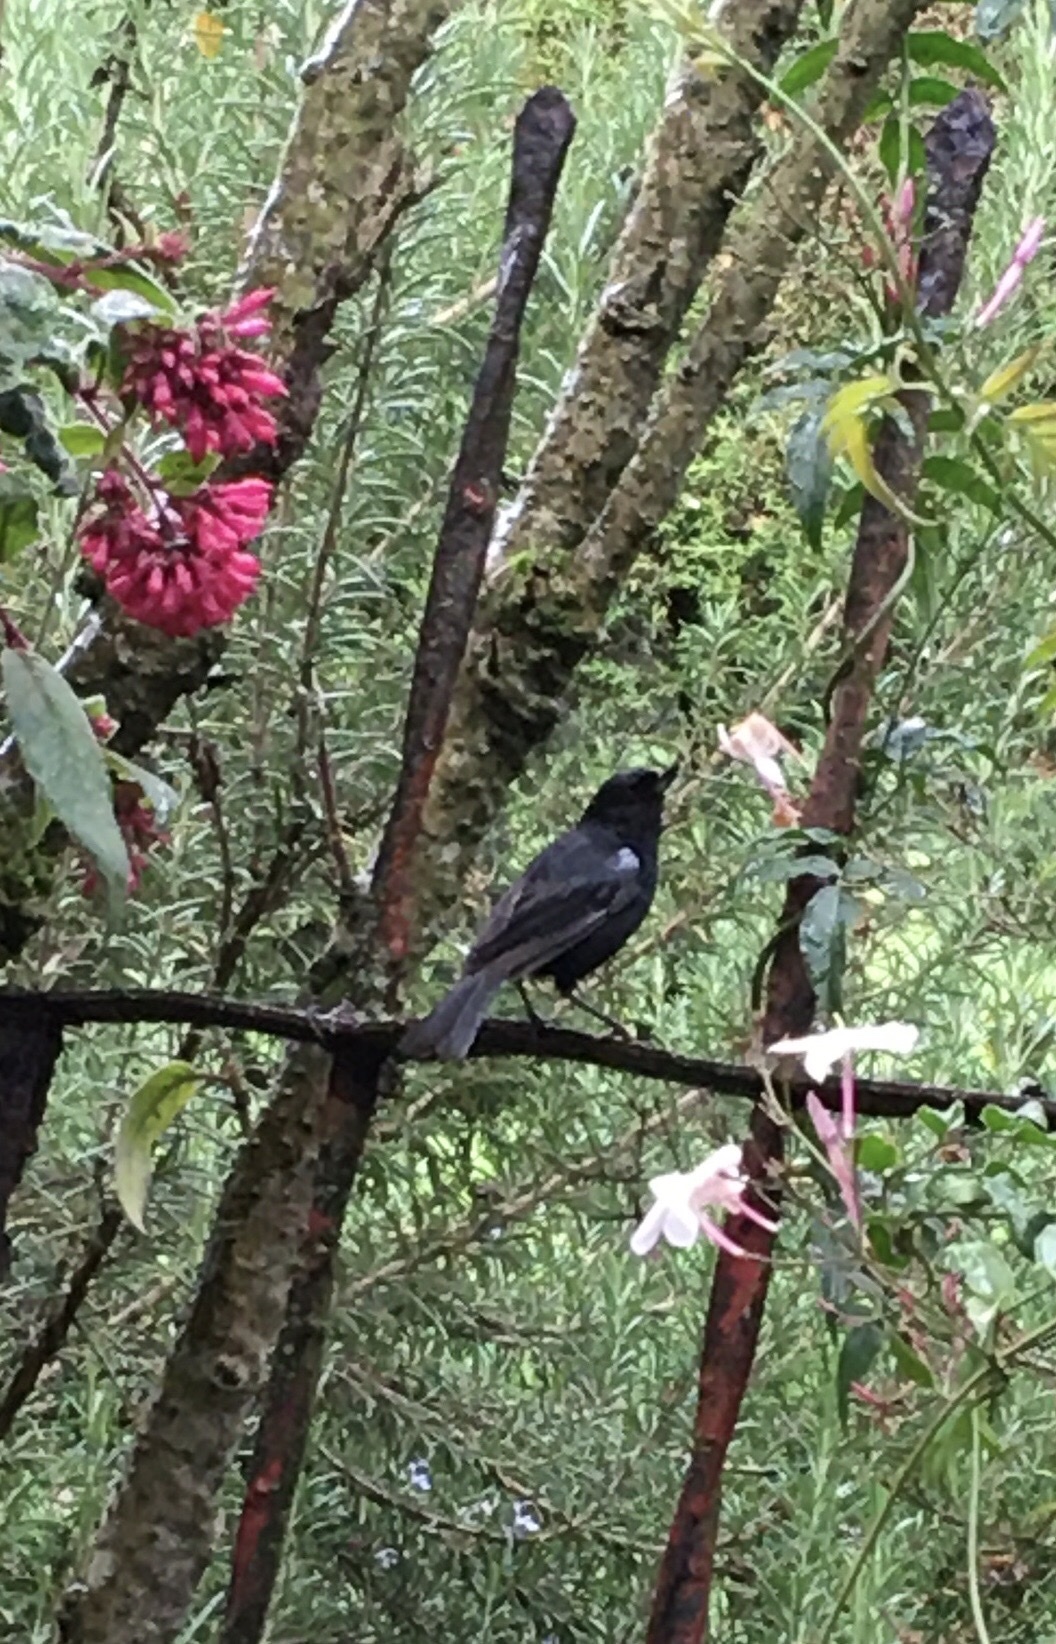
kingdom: Animalia
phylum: Chordata
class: Aves
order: Passeriformes
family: Thraupidae
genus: Diglossa
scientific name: Diglossa humeralis
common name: Black flowerpiercer
